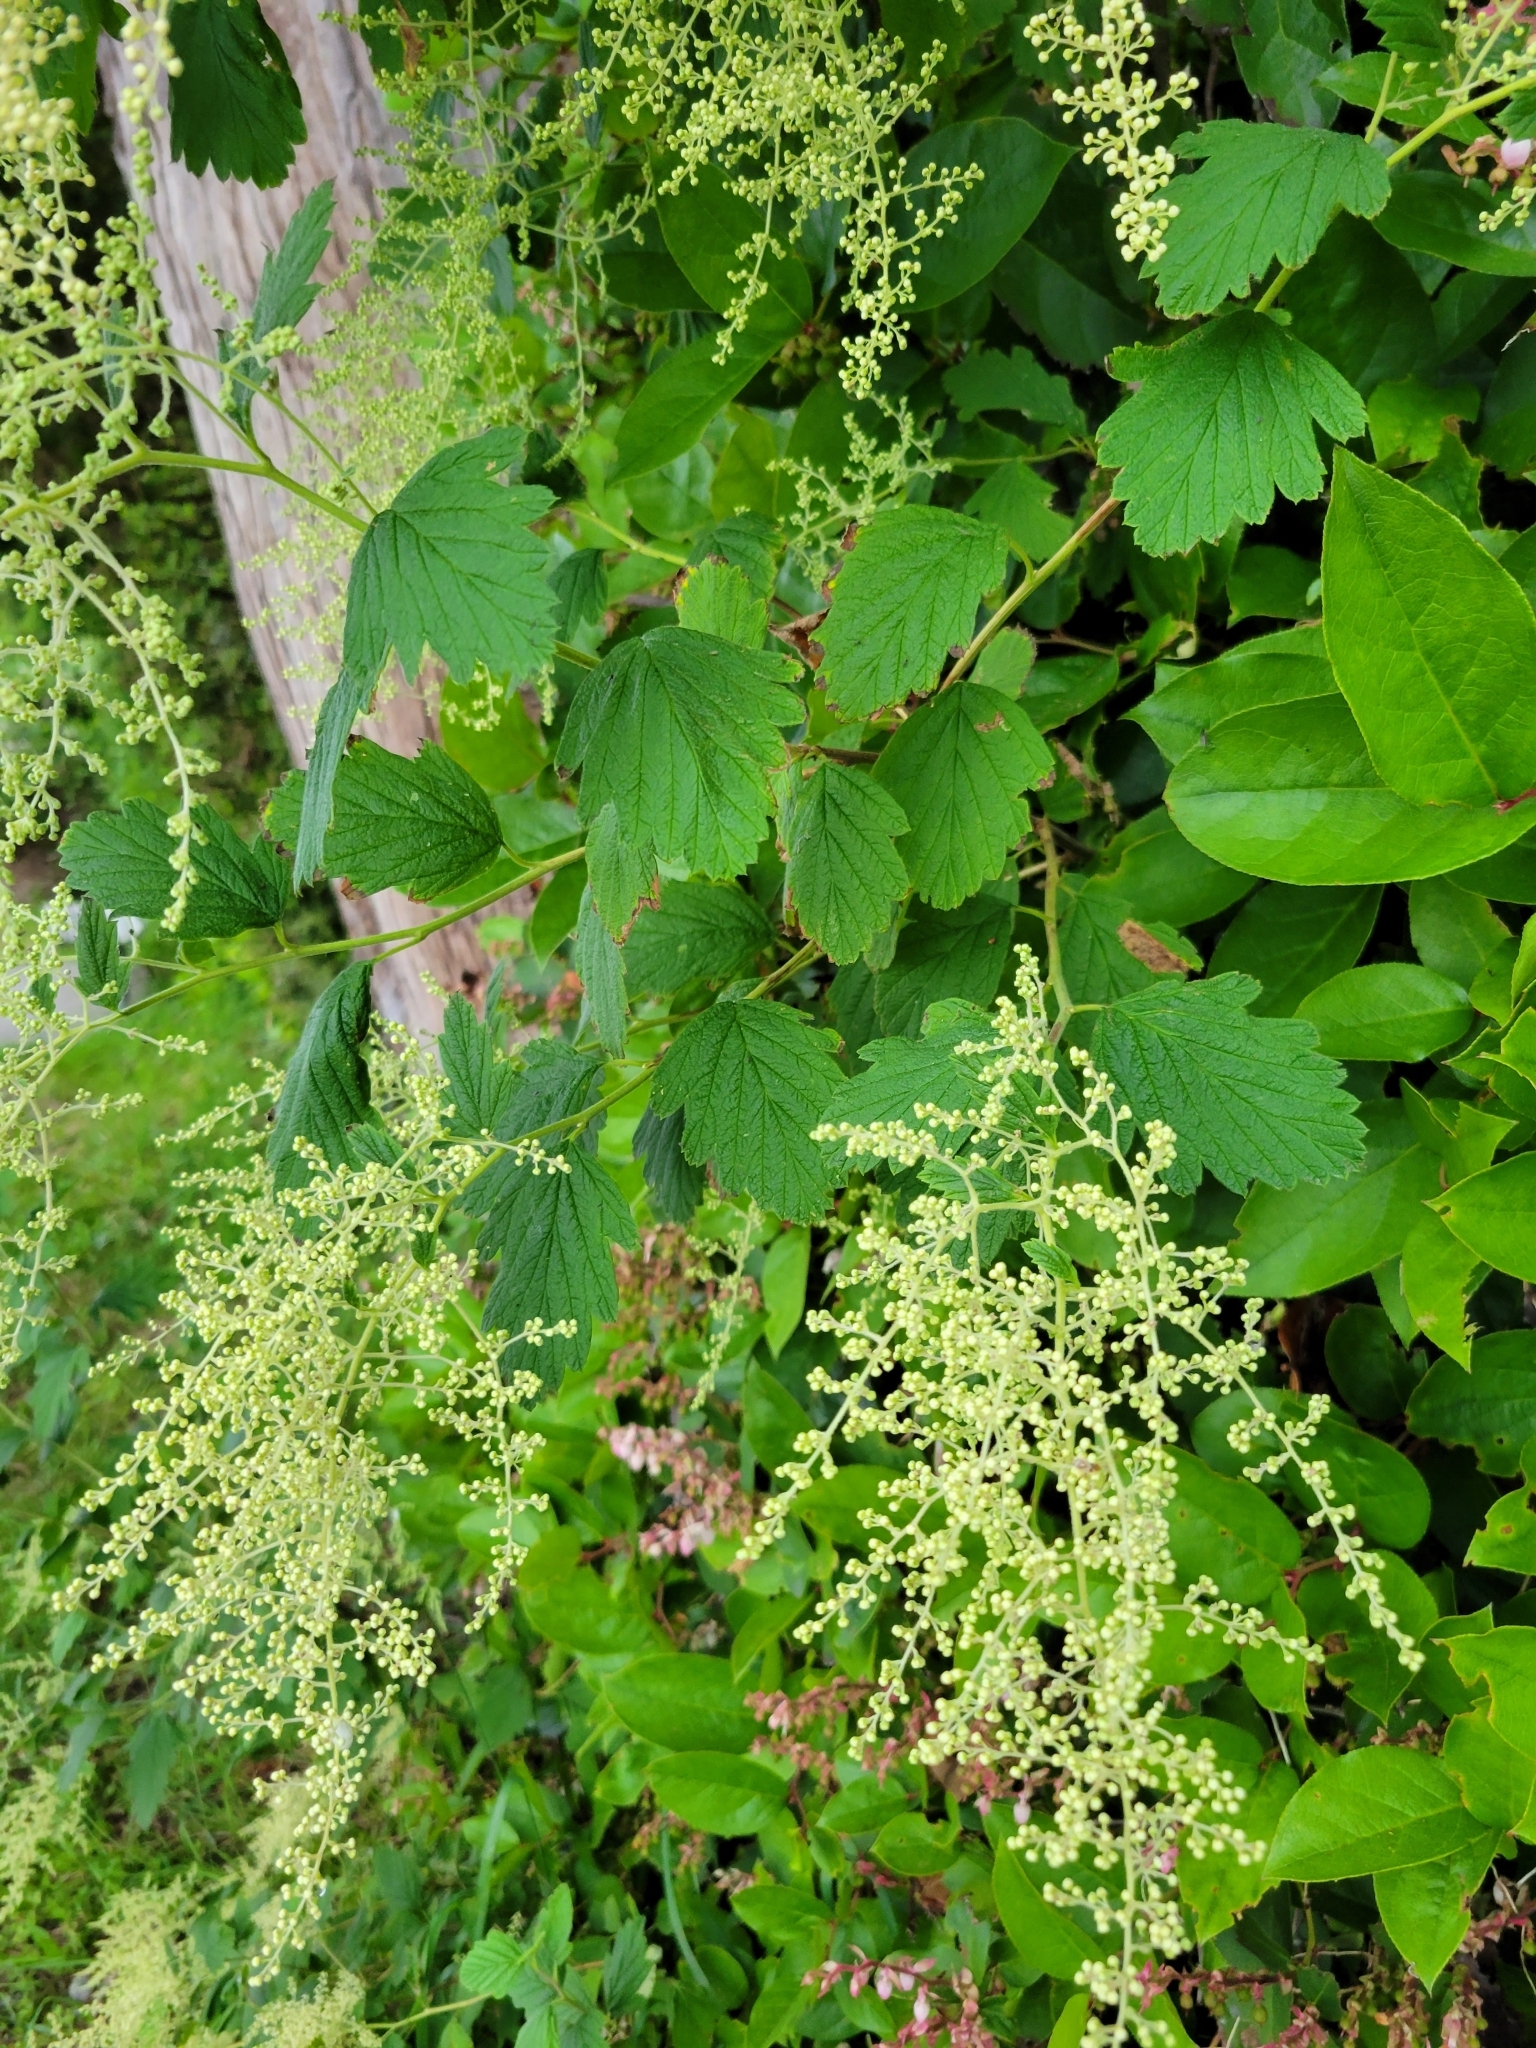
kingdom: Plantae
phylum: Tracheophyta
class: Magnoliopsida
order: Rosales
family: Rosaceae
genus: Holodiscus
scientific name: Holodiscus discolor
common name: Oceanspray
